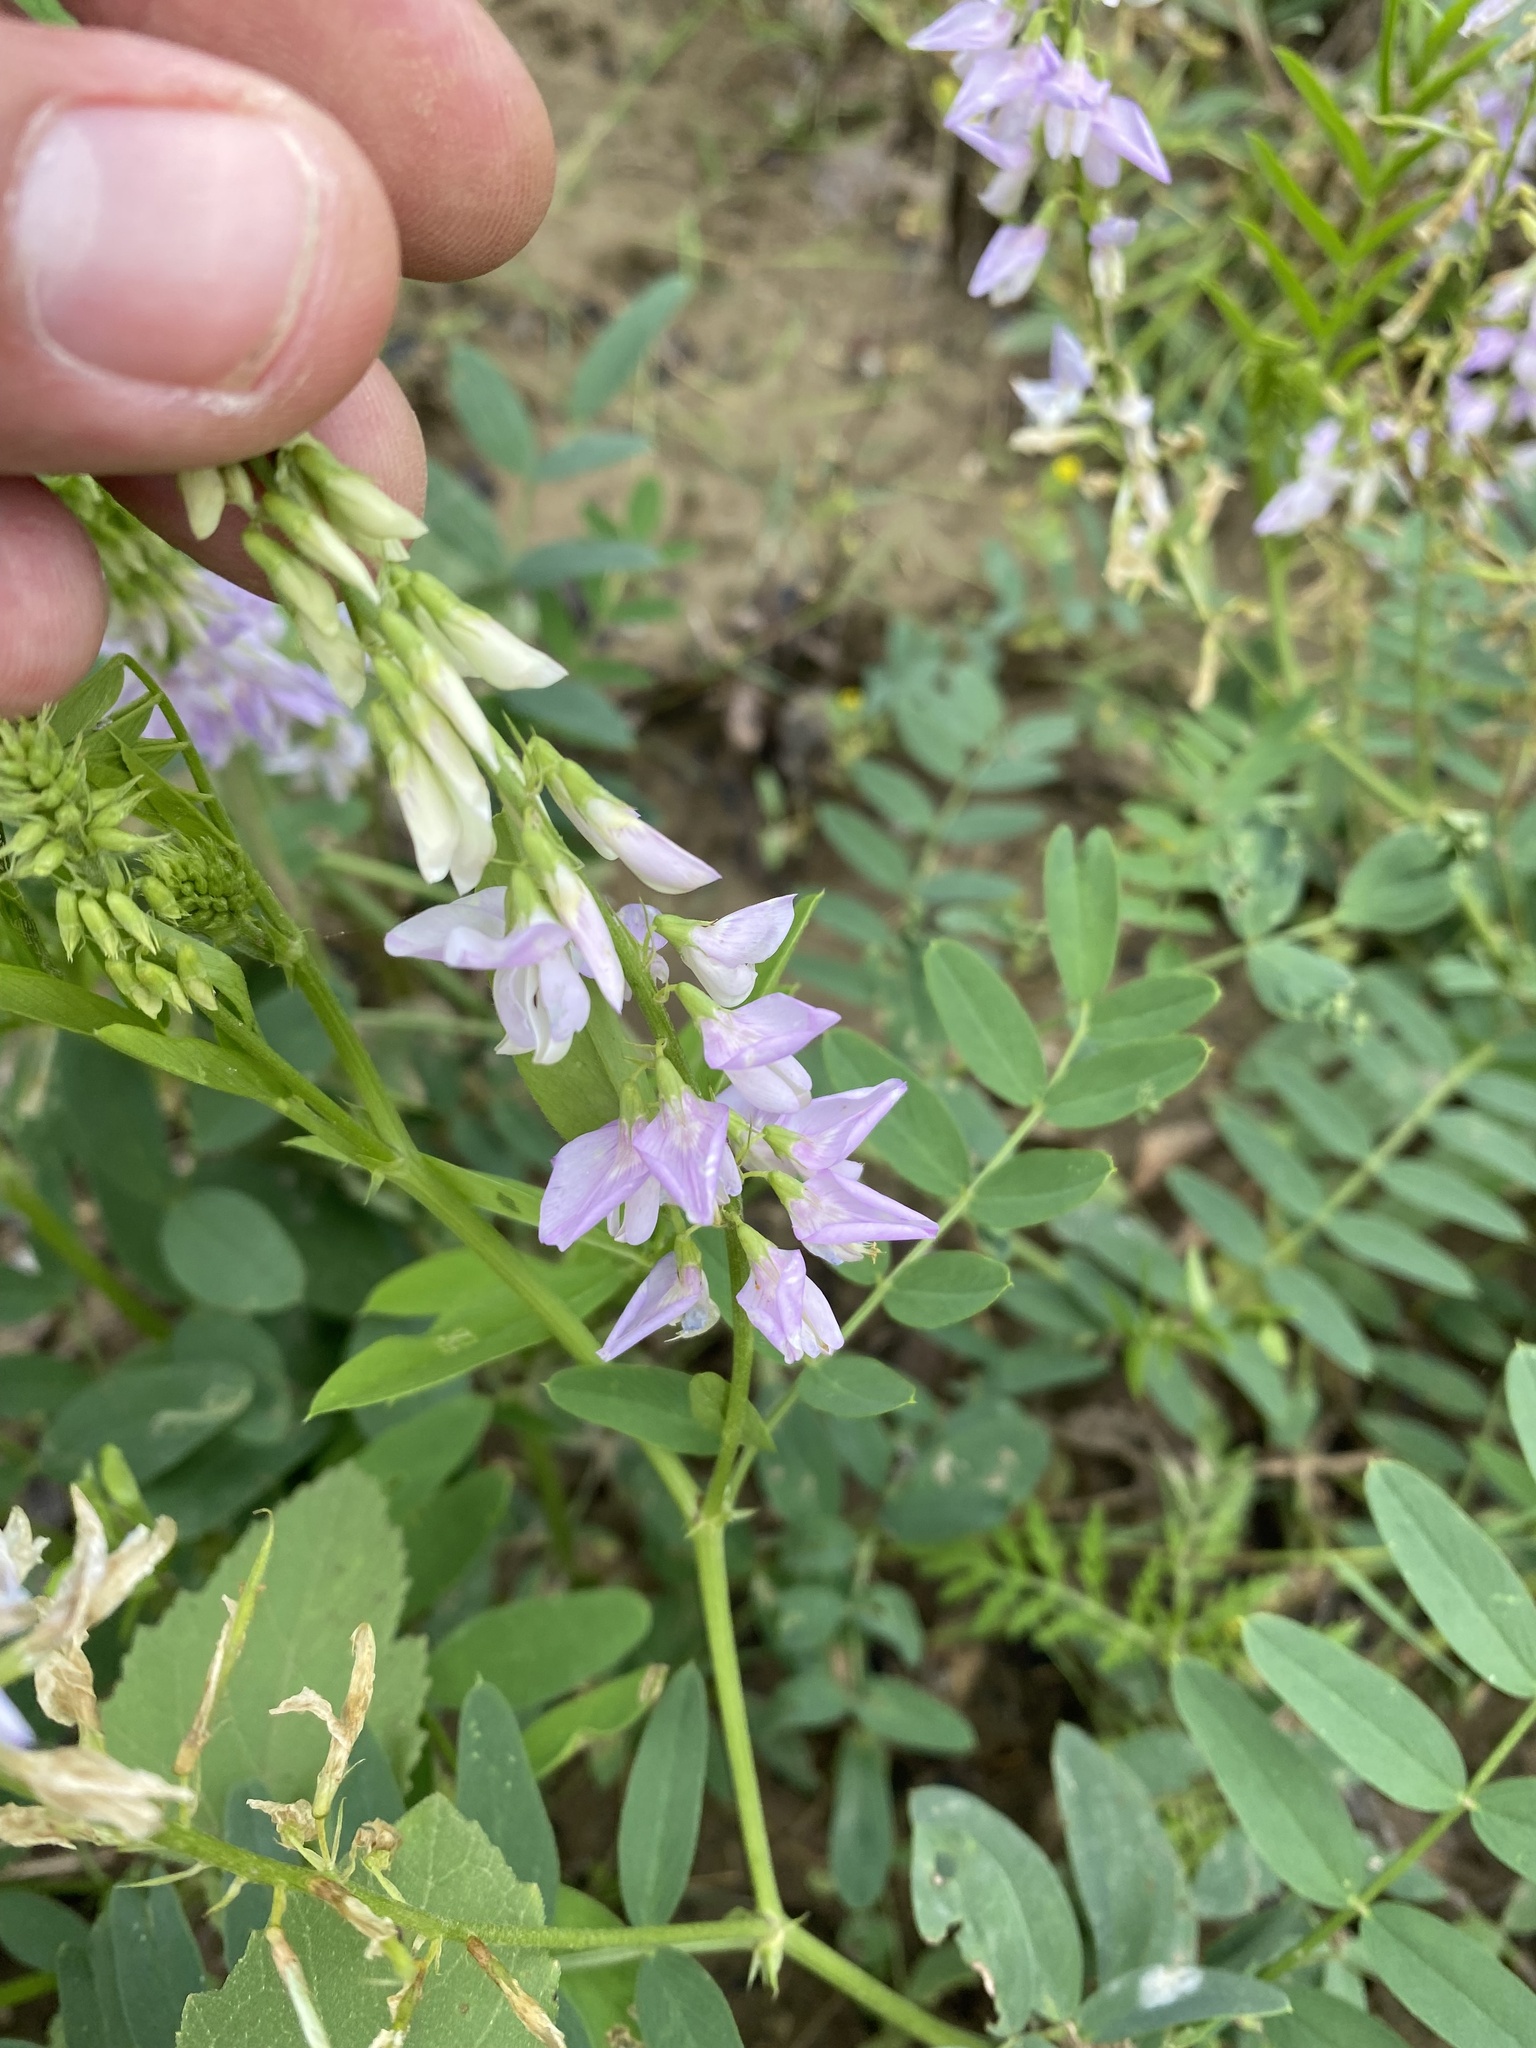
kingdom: Plantae
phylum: Tracheophyta
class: Magnoliopsida
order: Fabales
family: Fabaceae
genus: Galega
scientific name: Galega officinalis
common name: Goat's-rue
